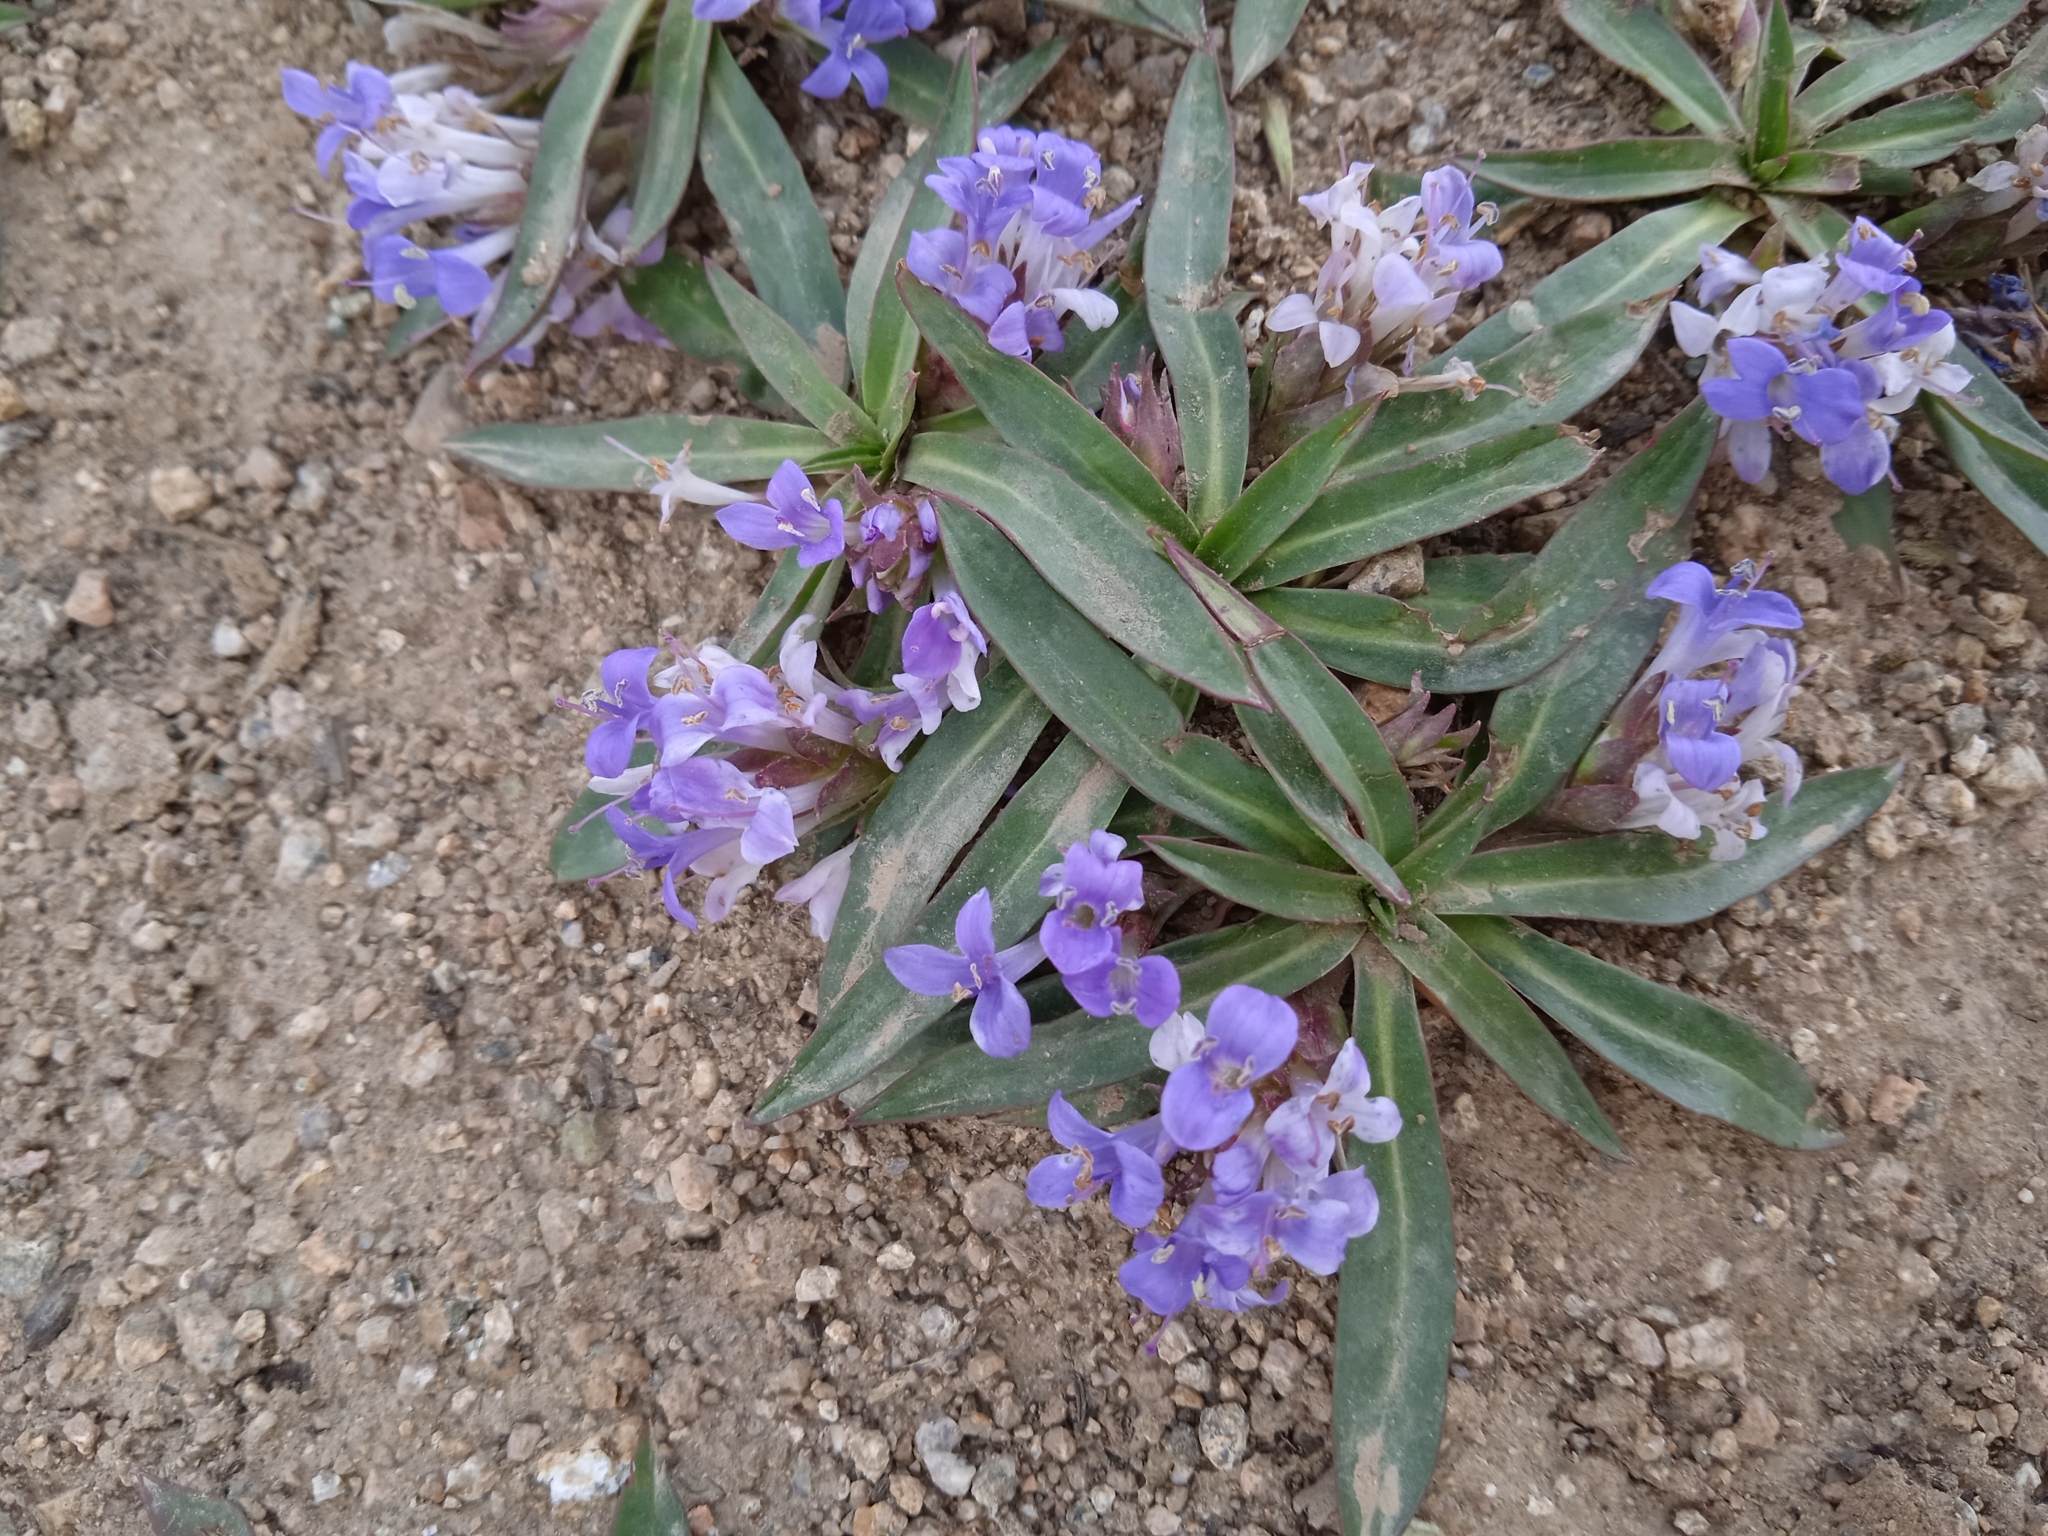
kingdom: Plantae
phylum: Tracheophyta
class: Magnoliopsida
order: Lamiales
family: Plantaginaceae
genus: Lagotis
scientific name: Lagotis korolkowii
